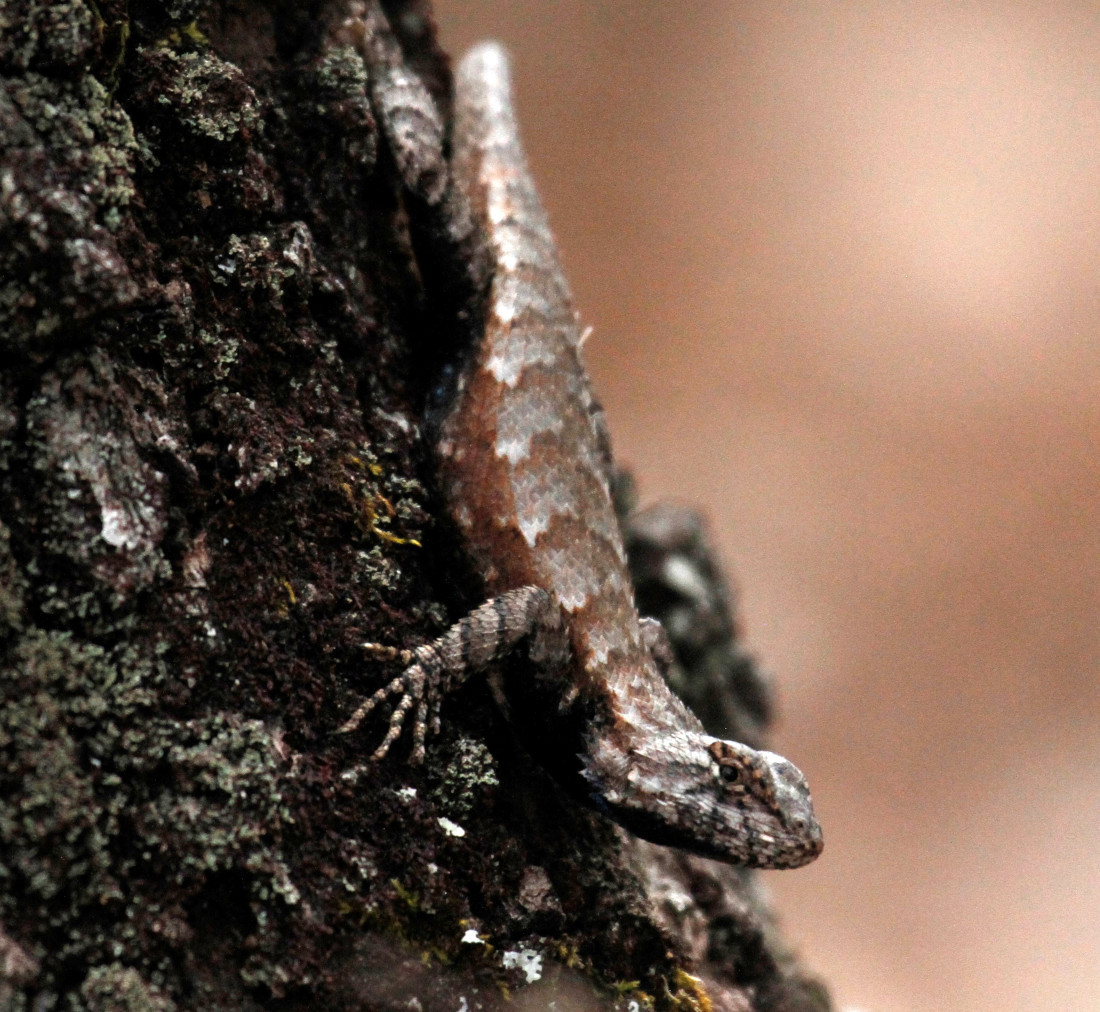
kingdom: Animalia
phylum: Chordata
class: Squamata
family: Phrynosomatidae
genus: Sceloporus
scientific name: Sceloporus undulatus
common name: Eastern fence lizard
